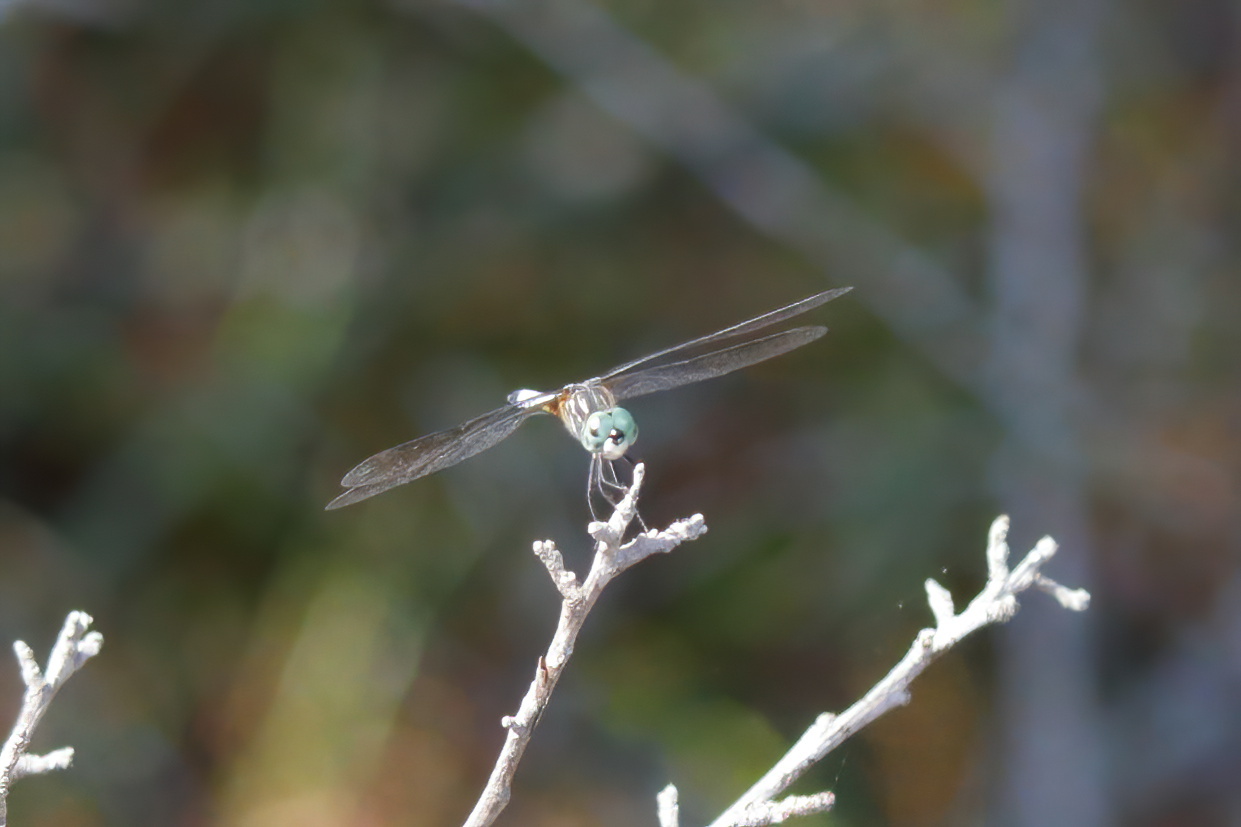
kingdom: Animalia
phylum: Arthropoda
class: Insecta
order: Odonata
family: Libellulidae
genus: Pachydiplax
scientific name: Pachydiplax longipennis
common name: Blue dasher
